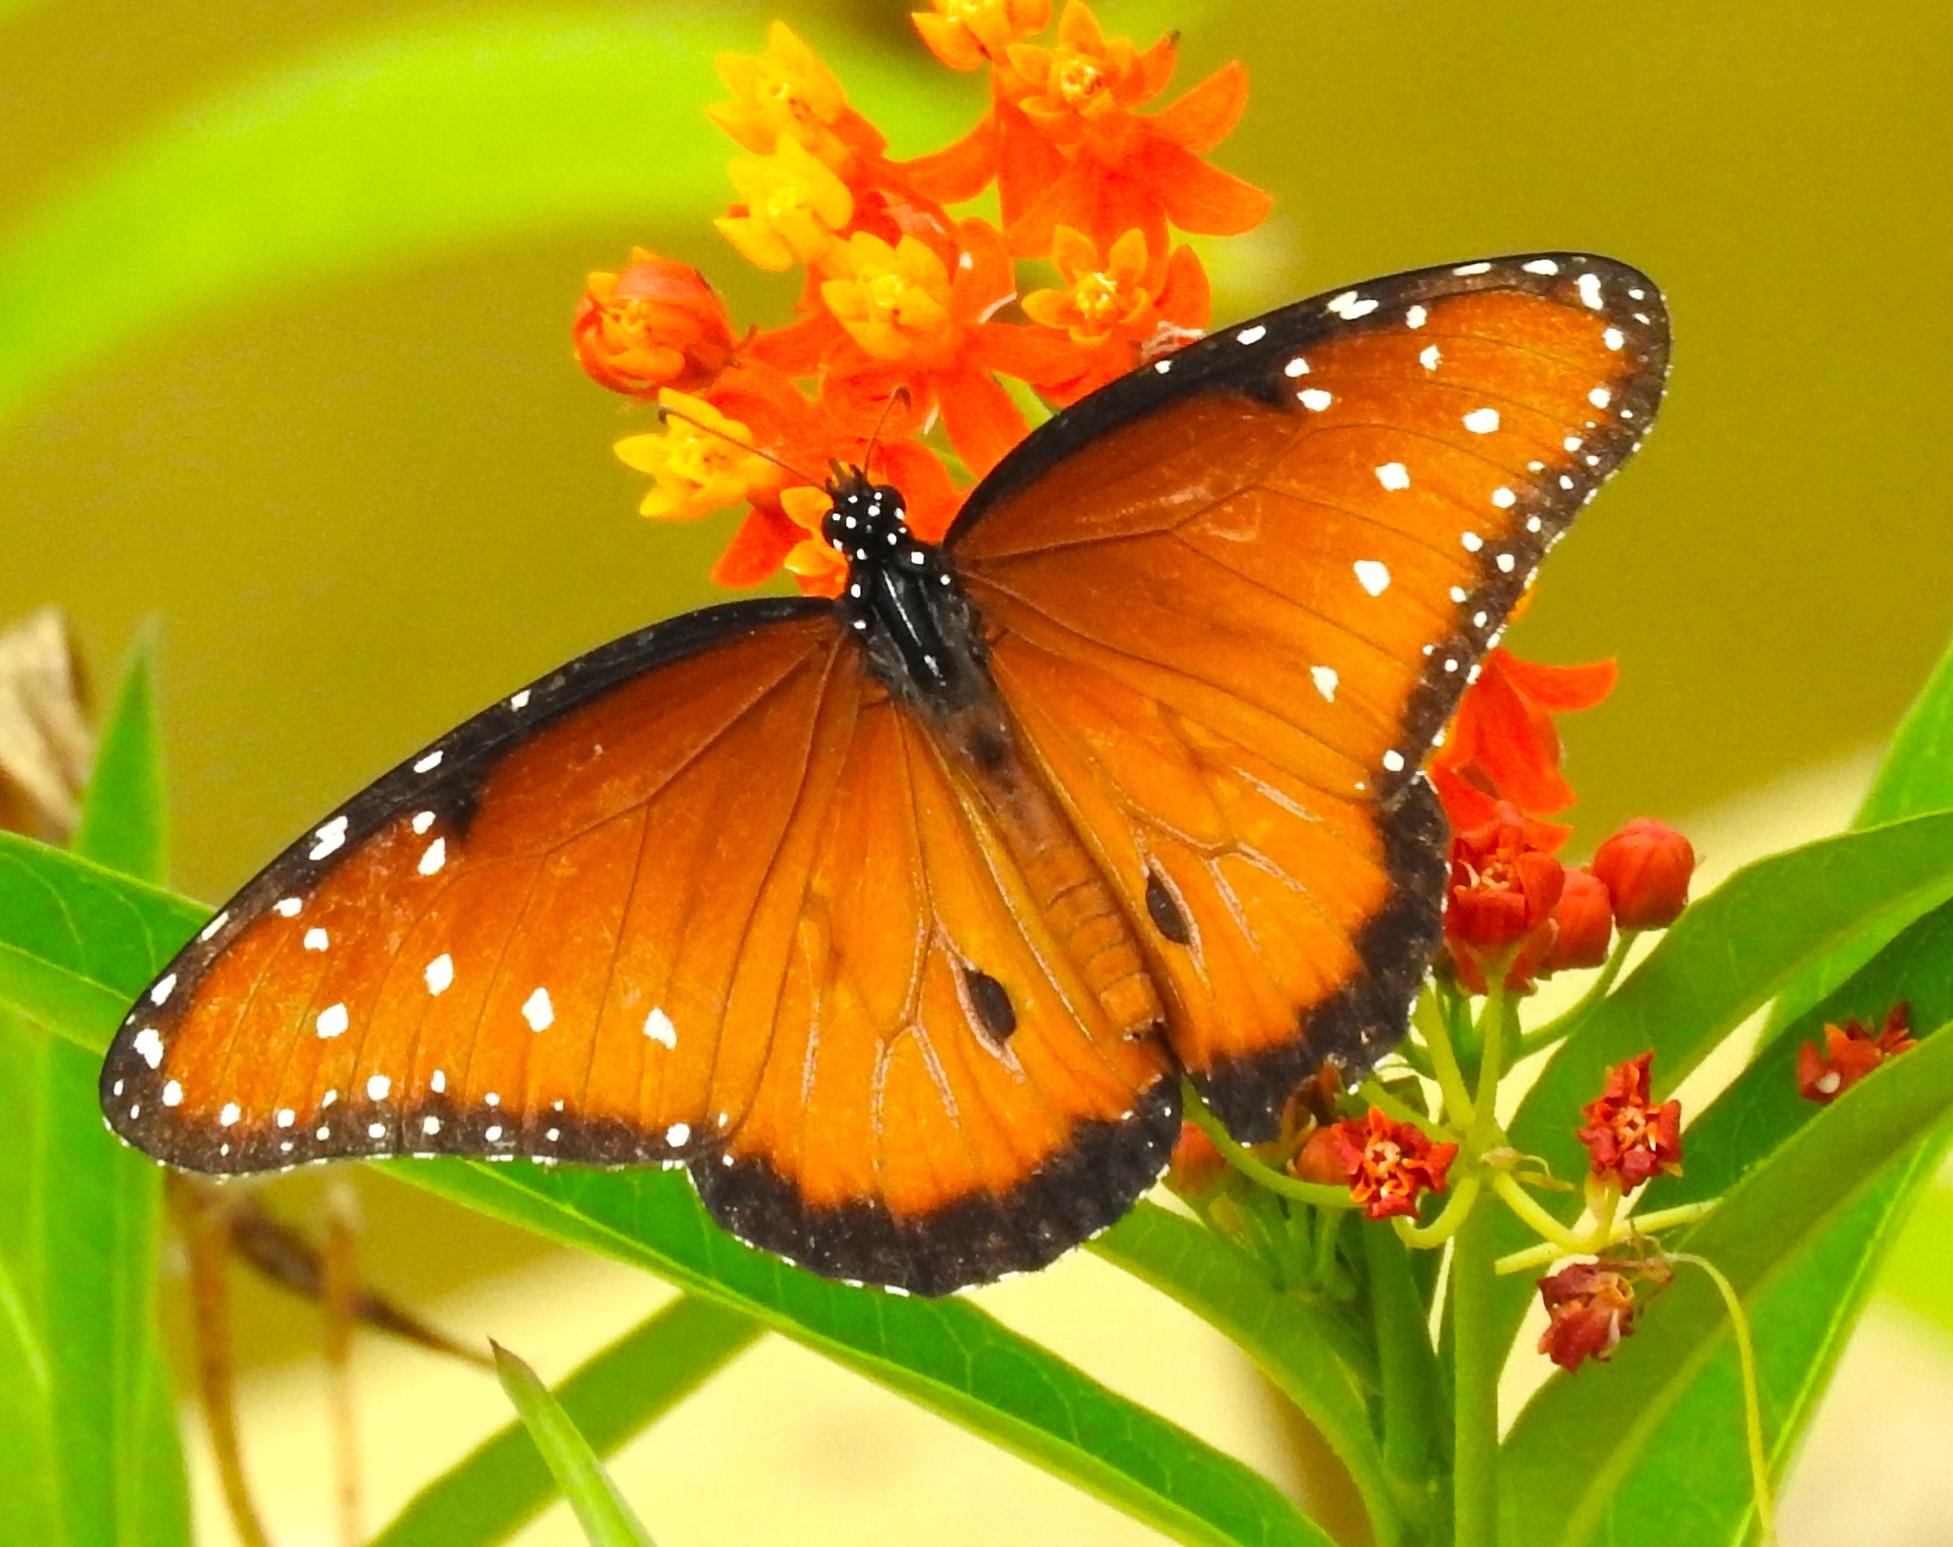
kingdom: Animalia
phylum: Arthropoda
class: Insecta
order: Lepidoptera
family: Nymphalidae
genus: Danaus
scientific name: Danaus gilippus
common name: Queen
